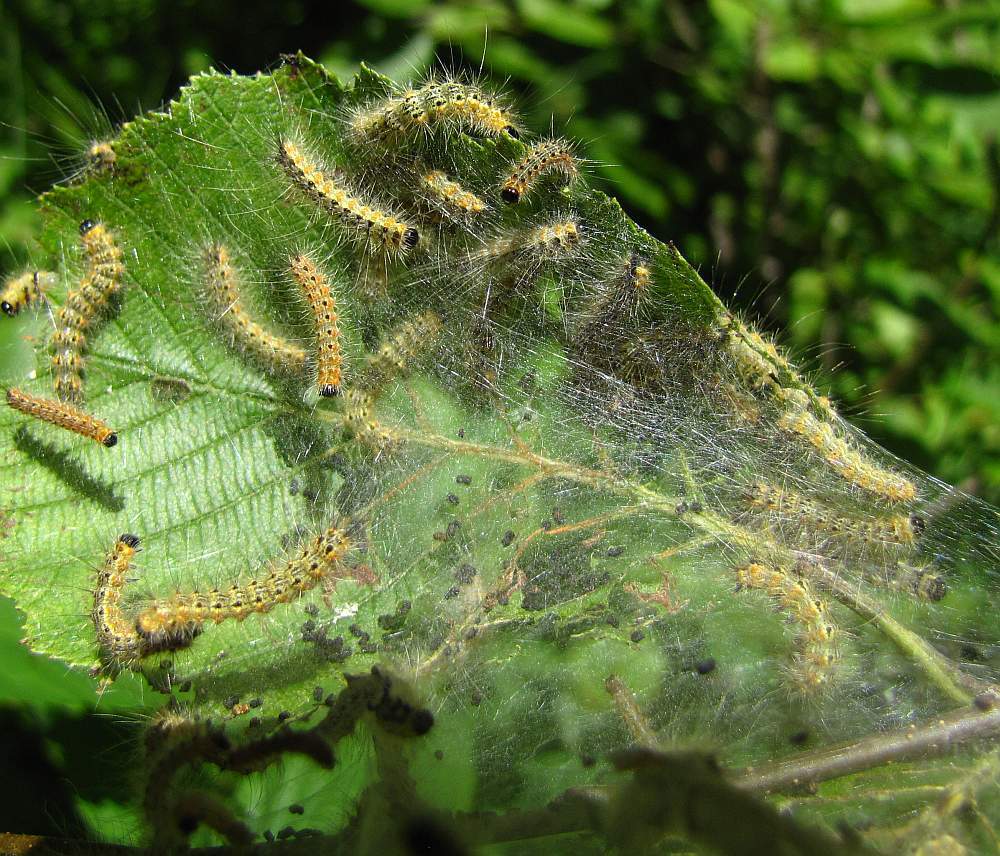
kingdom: Animalia
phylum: Arthropoda
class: Insecta
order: Lepidoptera
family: Erebidae
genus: Hyphantria
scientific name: Hyphantria cunea
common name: American white moth
